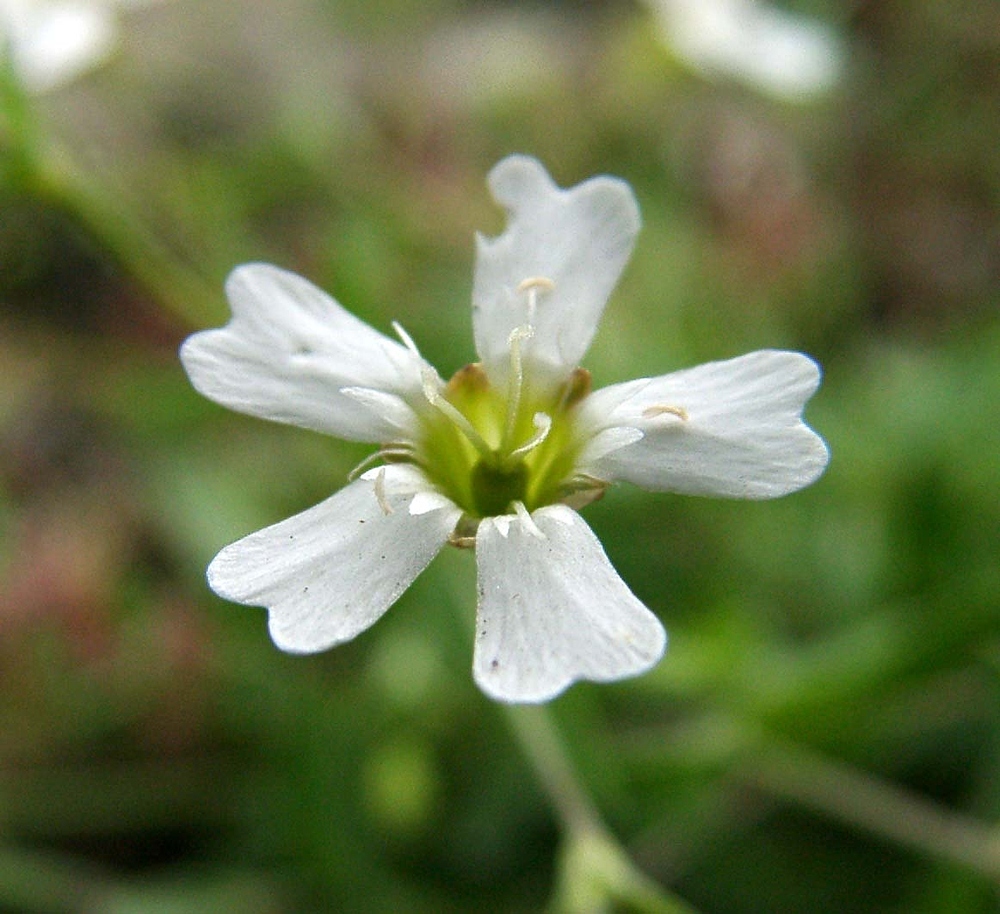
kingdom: Plantae
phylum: Tracheophyta
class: Magnoliopsida
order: Caryophyllales
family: Caryophyllaceae
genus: Atocion
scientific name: Atocion rupestre
